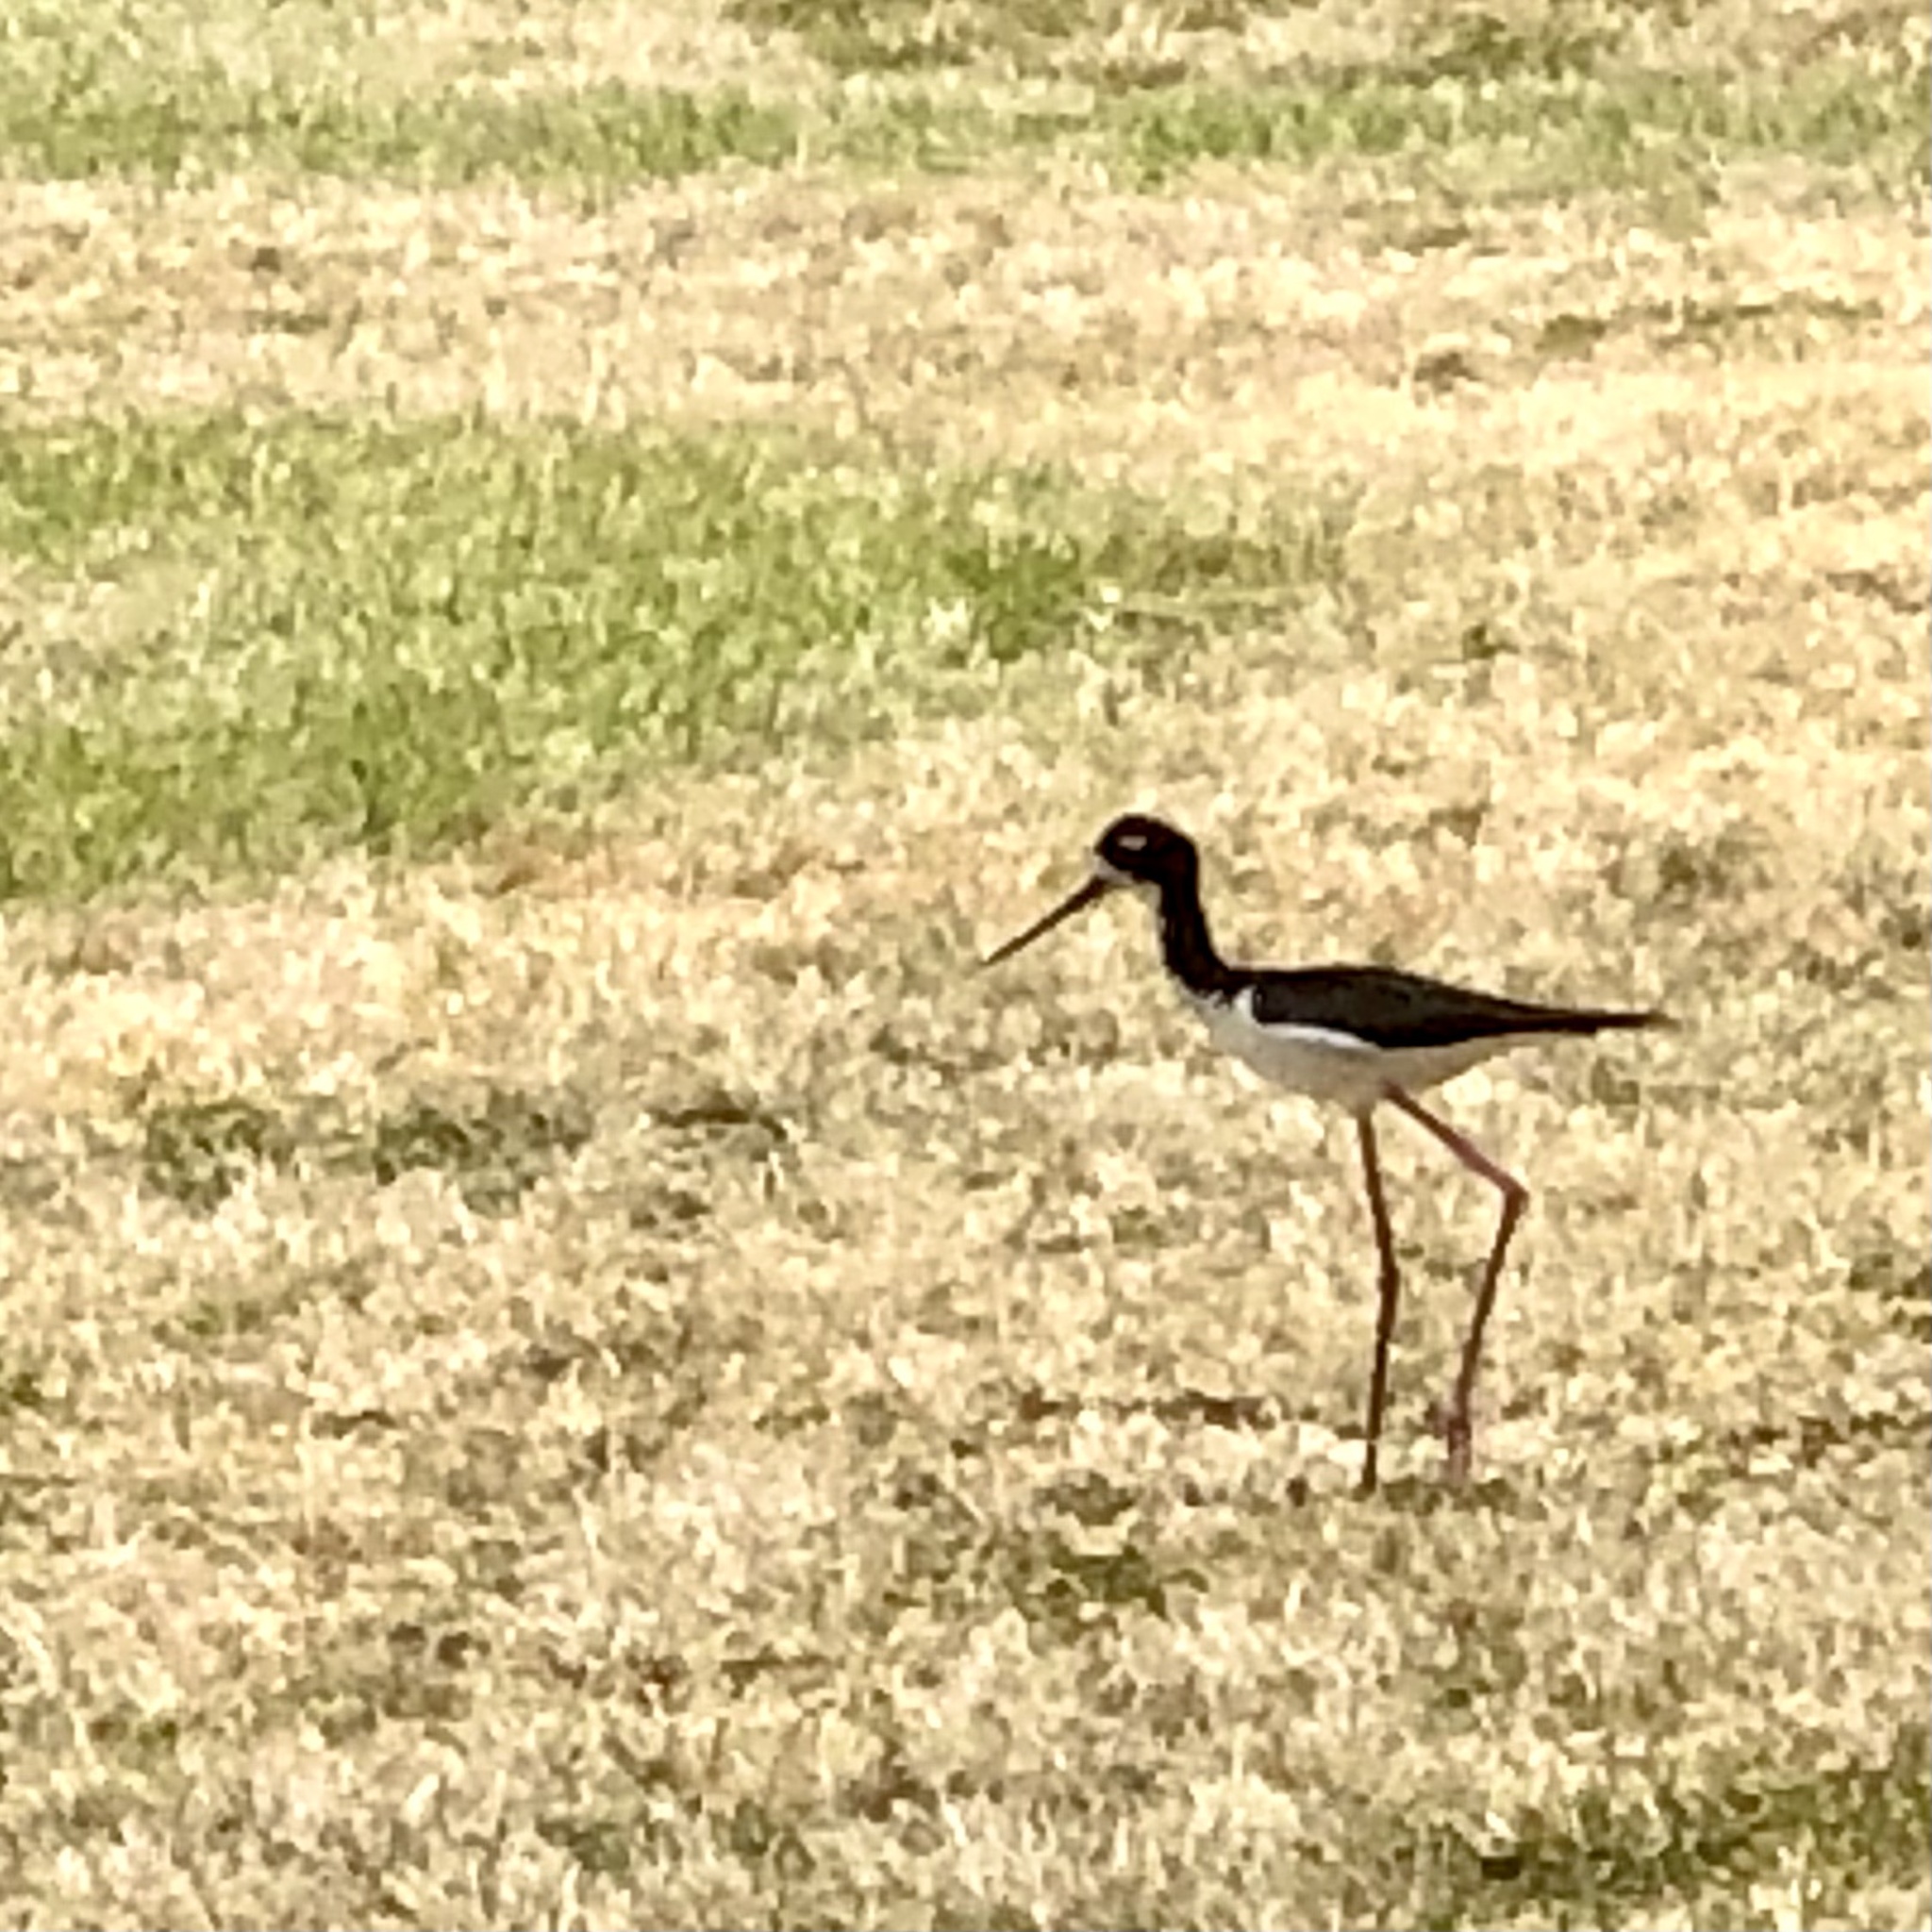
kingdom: Animalia
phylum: Chordata
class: Aves
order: Charadriiformes
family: Recurvirostridae
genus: Himantopus
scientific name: Himantopus mexicanus
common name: Black-necked stilt
